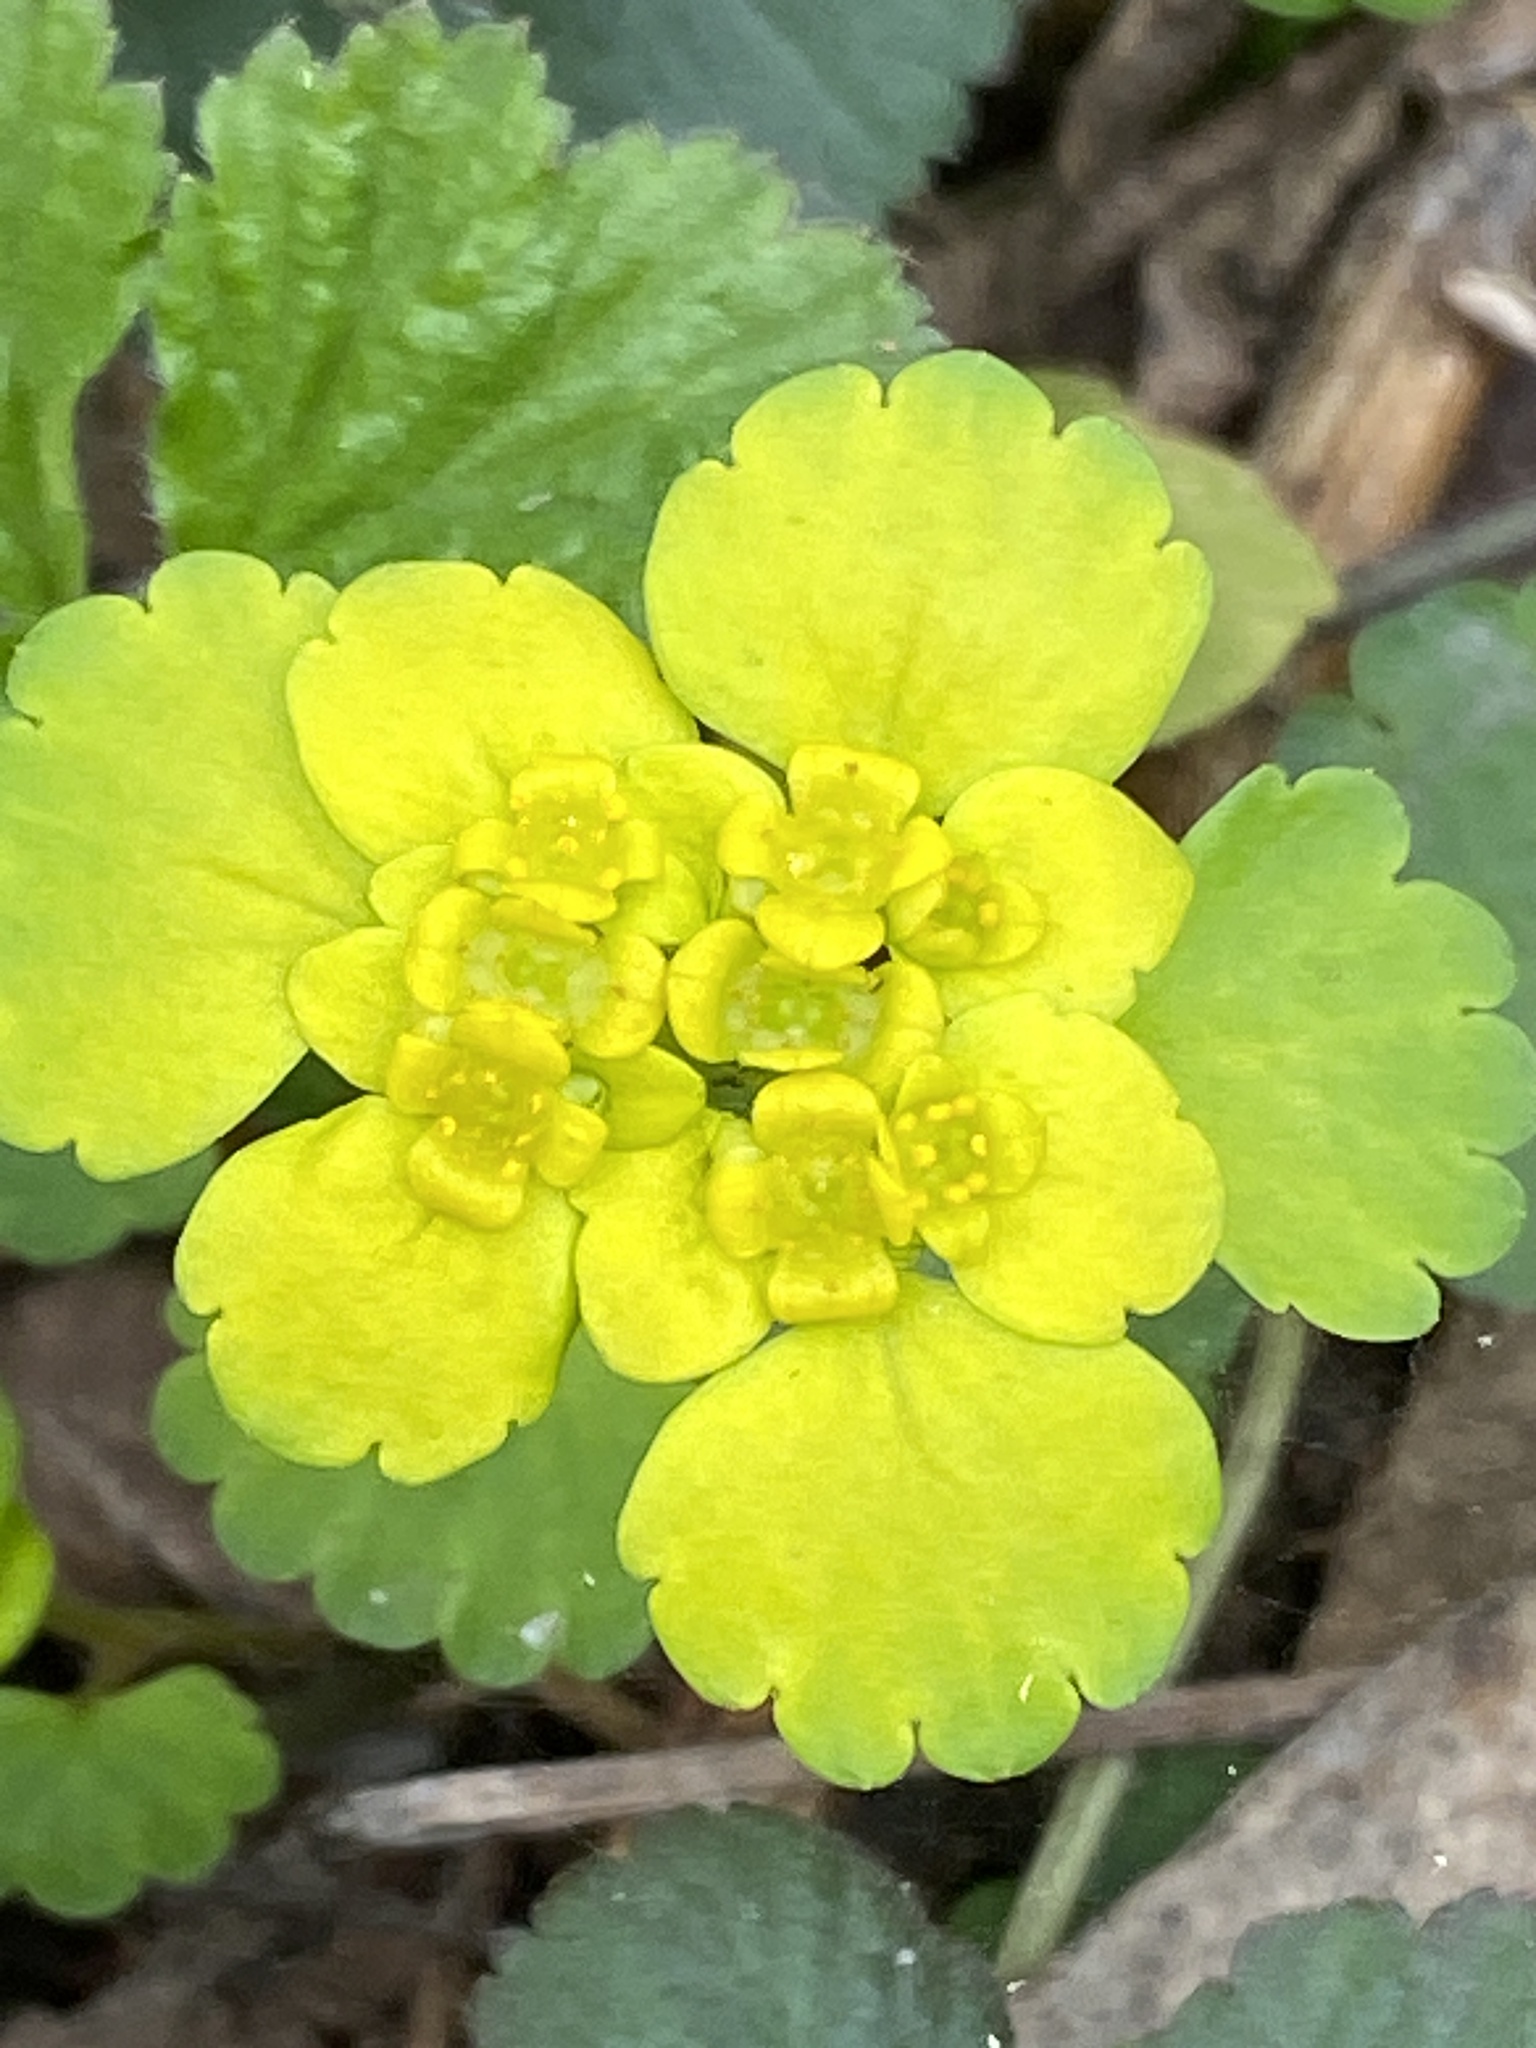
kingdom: Plantae
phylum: Tracheophyta
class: Magnoliopsida
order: Saxifragales
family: Saxifragaceae
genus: Chrysosplenium
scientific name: Chrysosplenium alternifolium
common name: Alternate-leaved golden-saxifrage
